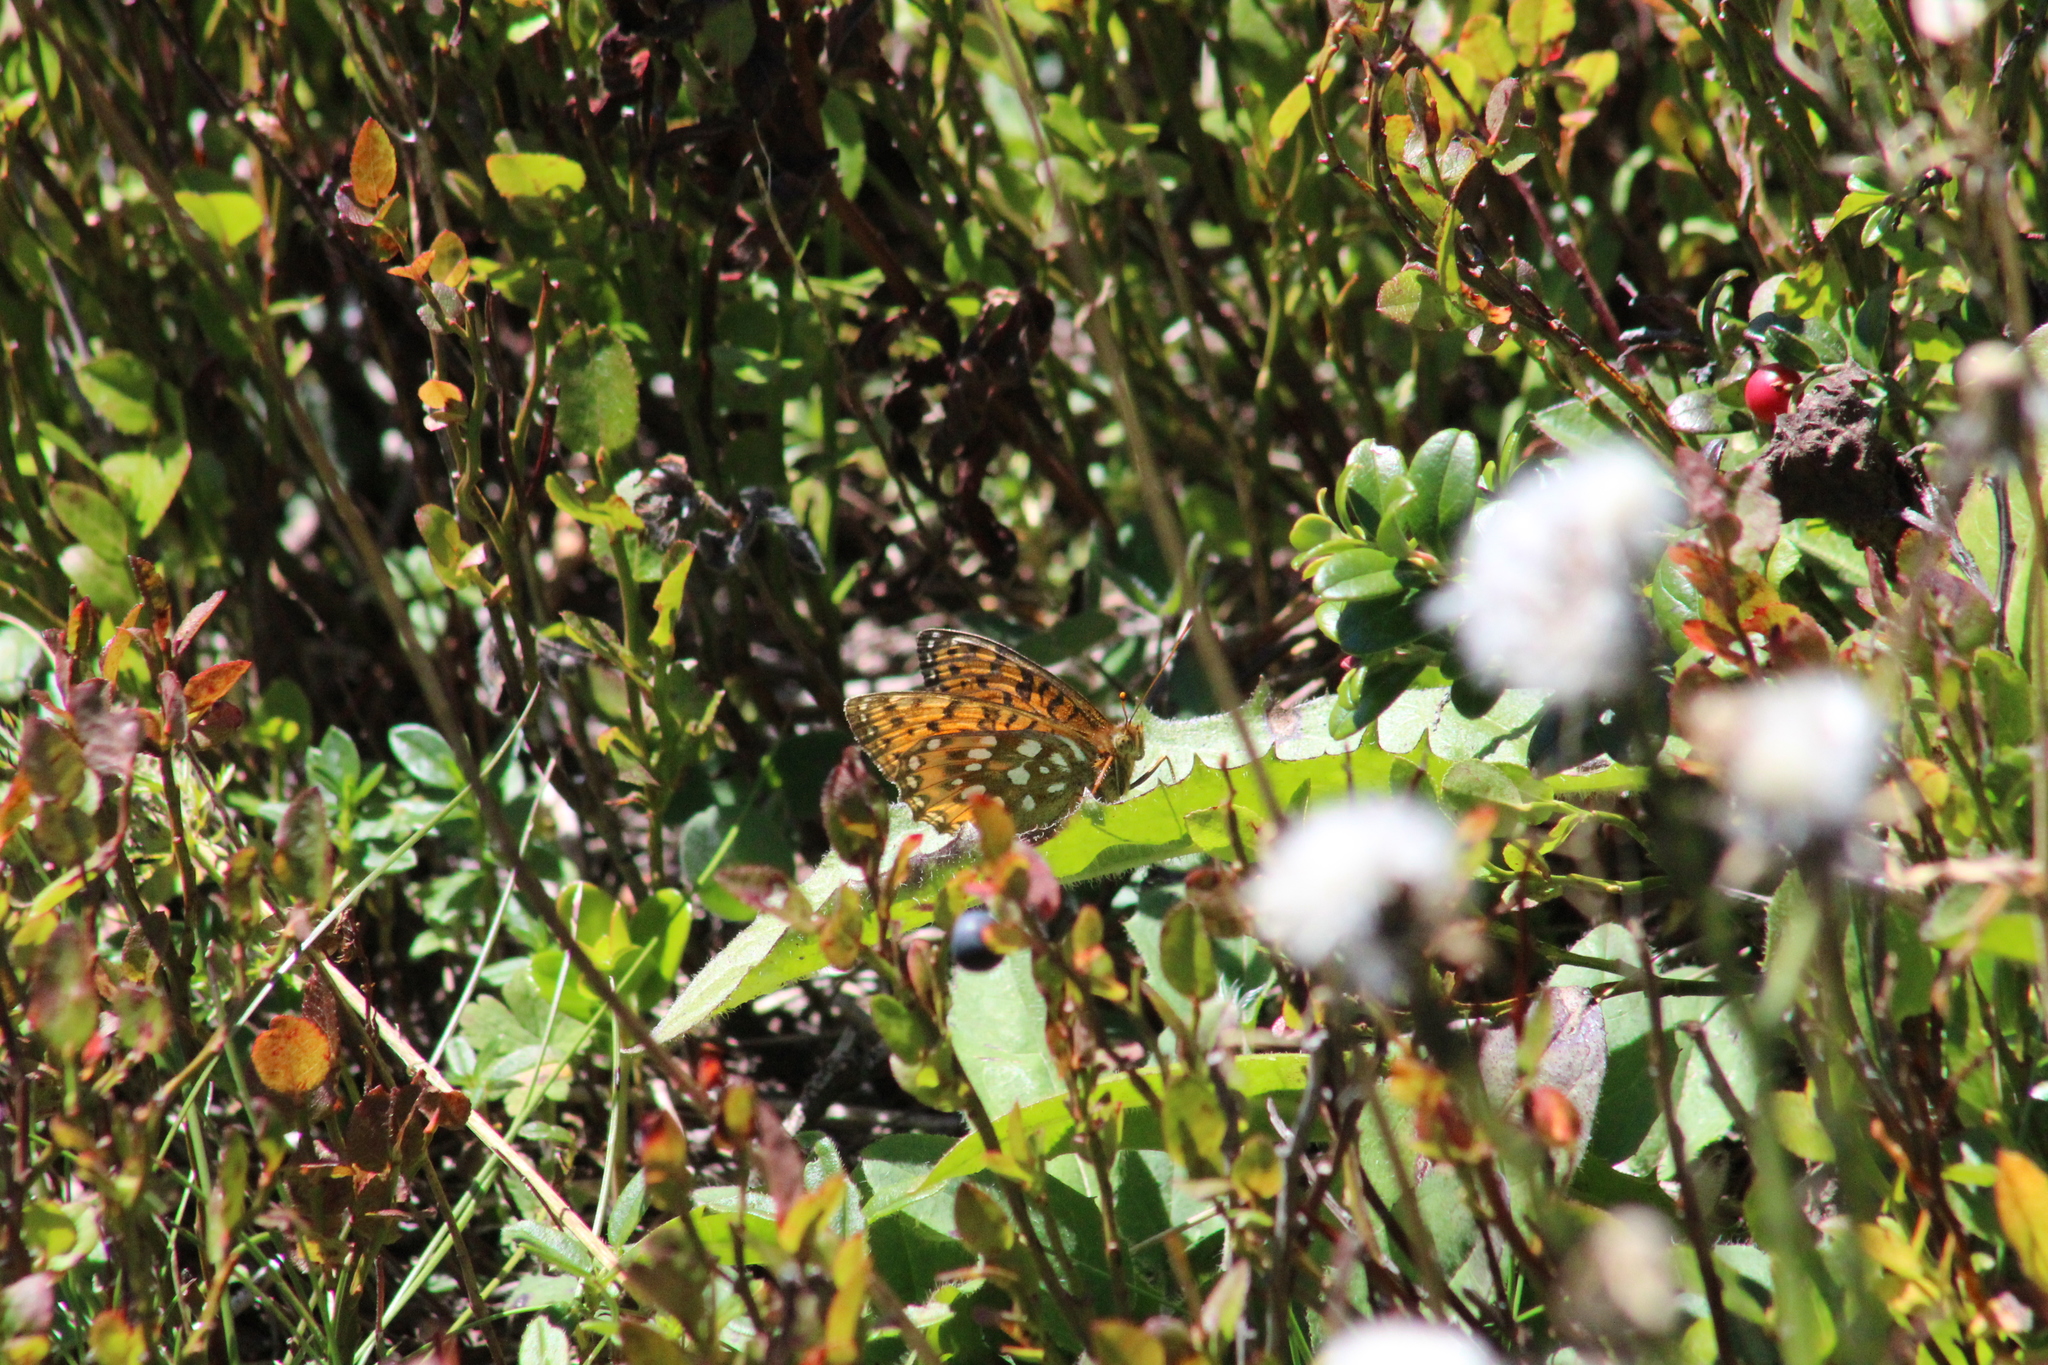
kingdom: Animalia
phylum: Arthropoda
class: Insecta
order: Lepidoptera
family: Nymphalidae
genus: Speyeria
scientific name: Speyeria aglaja
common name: Dark green fritillary
